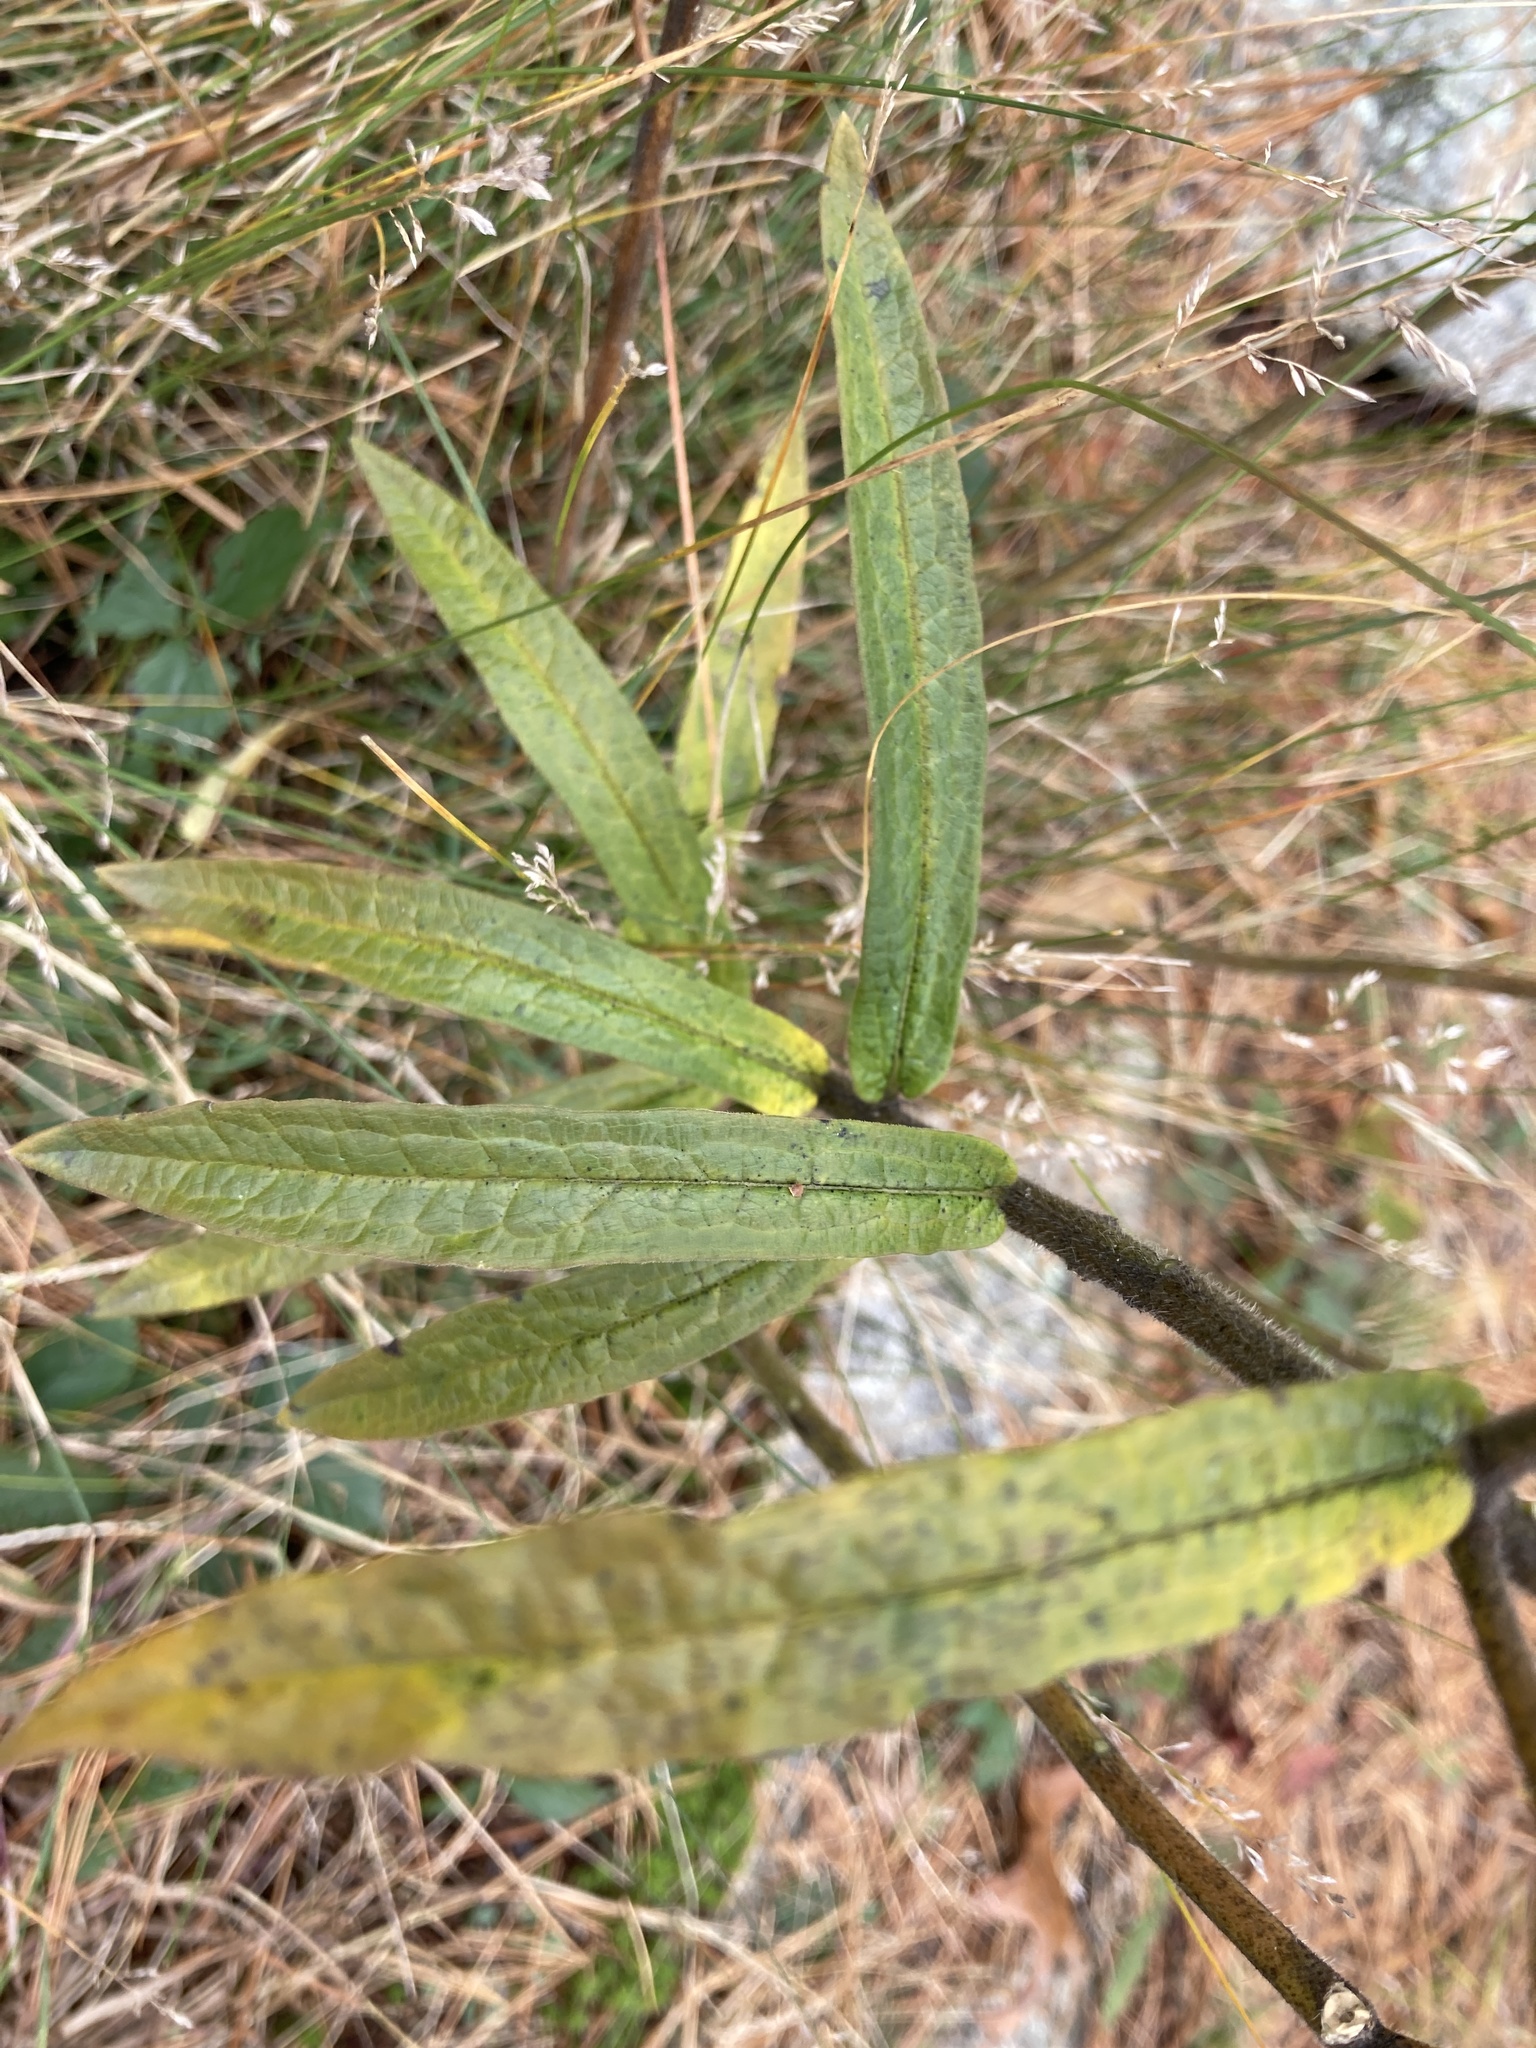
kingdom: Plantae
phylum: Tracheophyta
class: Magnoliopsida
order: Gentianales
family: Apocynaceae
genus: Asclepias
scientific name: Asclepias tuberosa
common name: Butterfly milkweed
